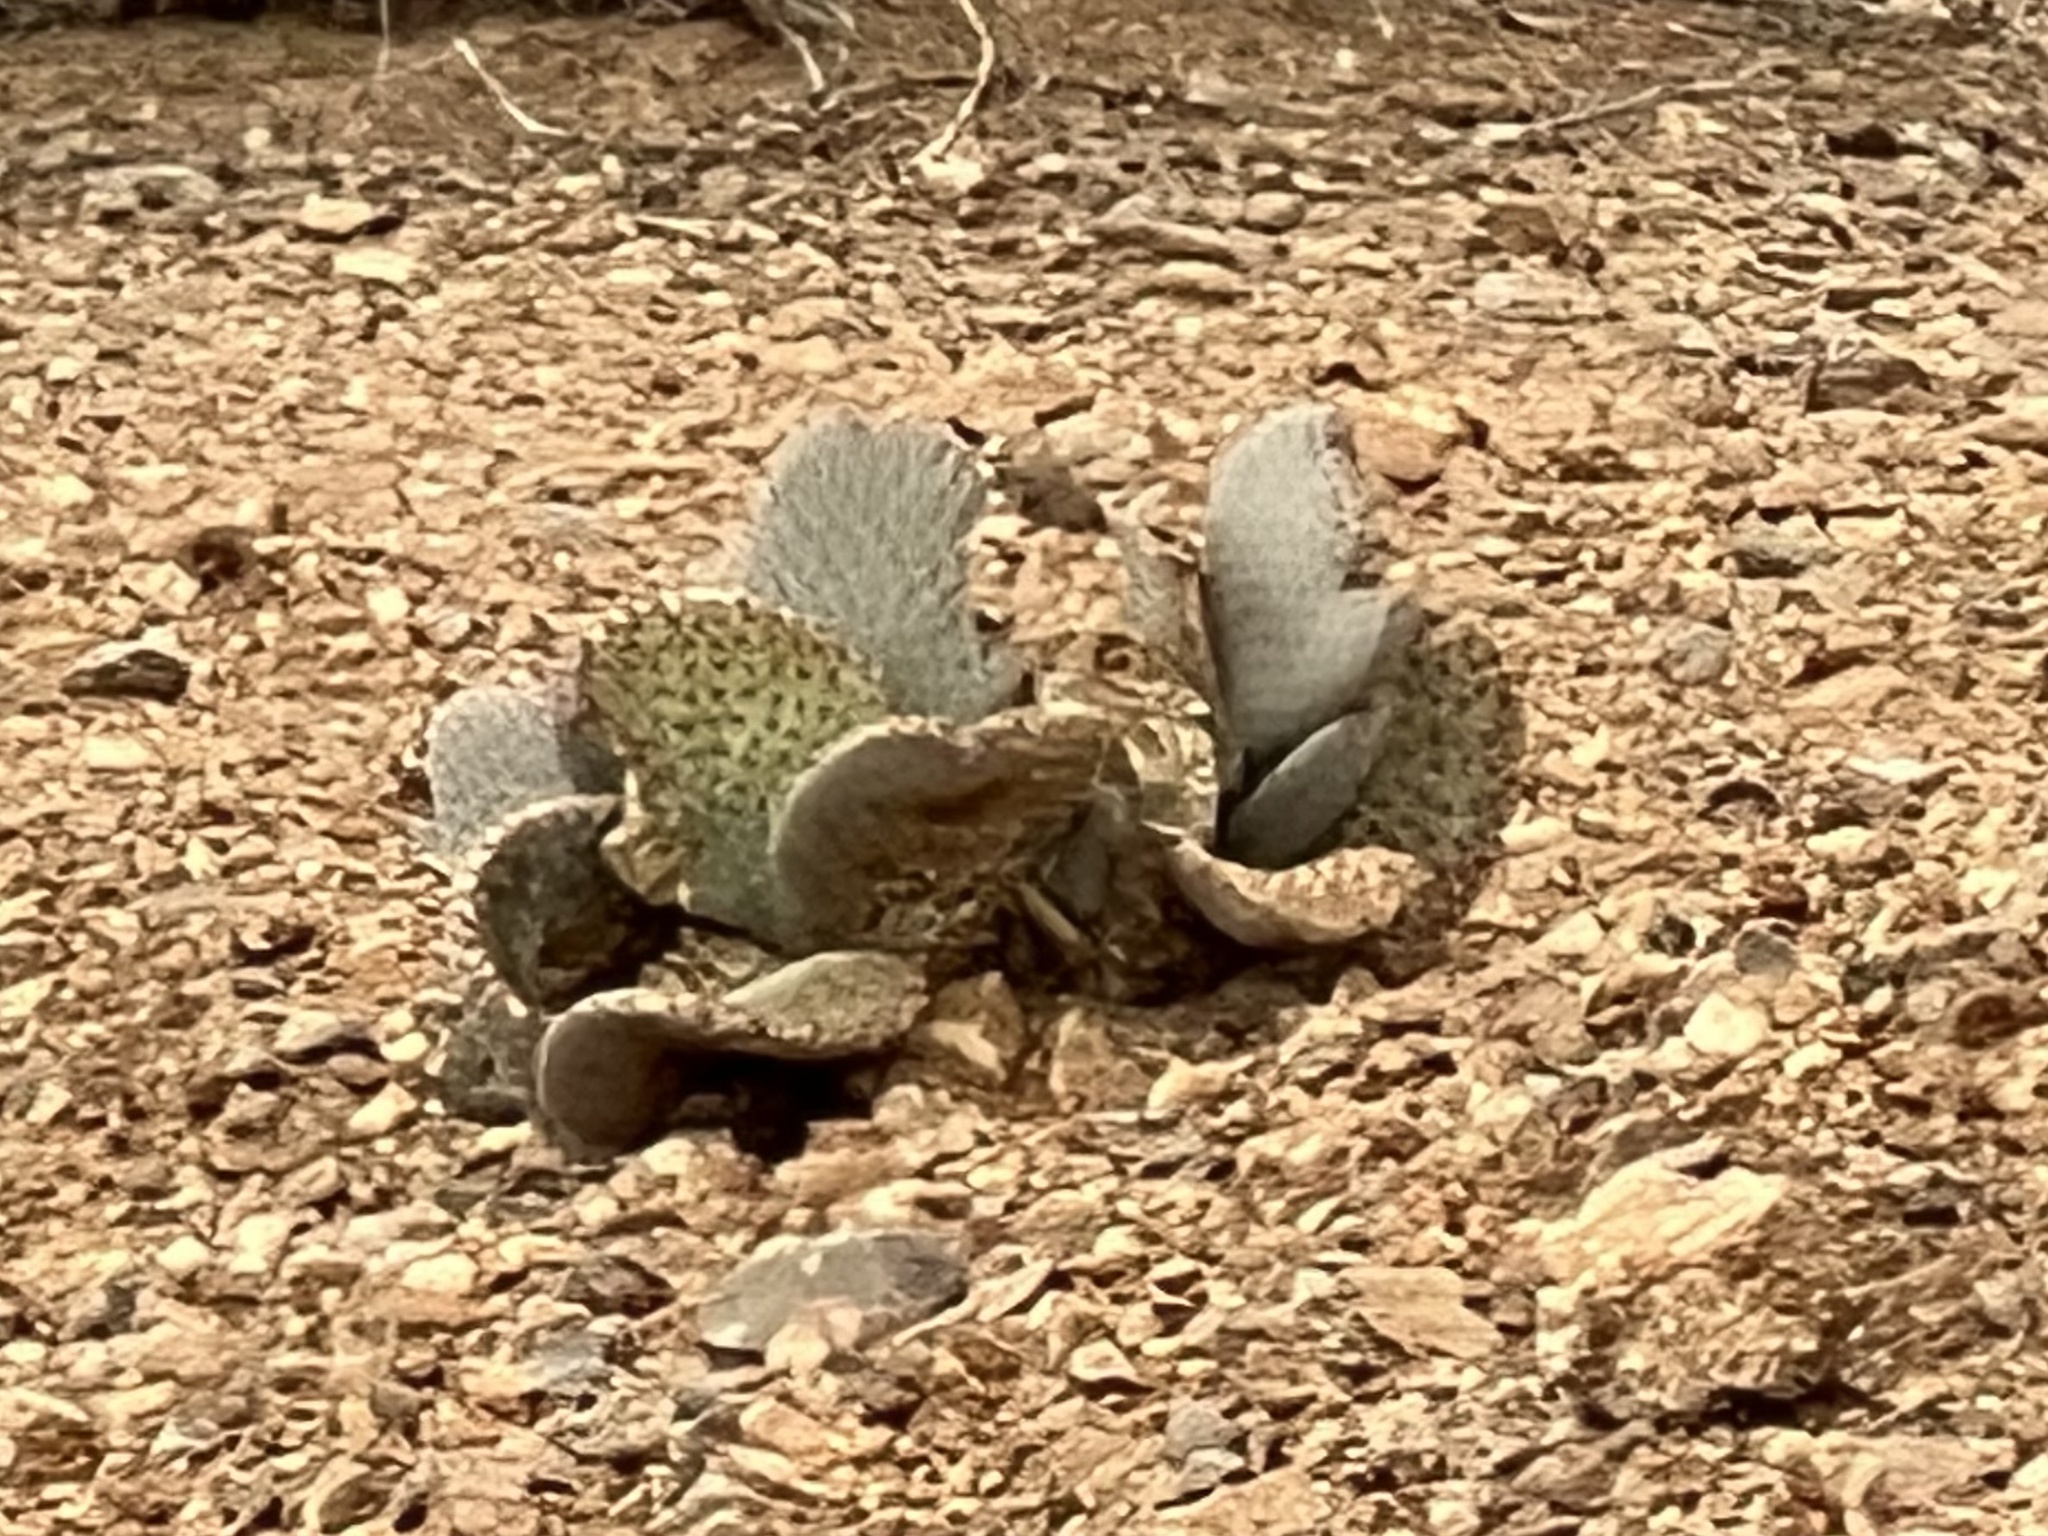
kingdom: Plantae
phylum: Tracheophyta
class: Magnoliopsida
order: Caryophyllales
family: Cactaceae
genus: Opuntia
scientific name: Opuntia basilaris
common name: Beavertail prickly-pear
